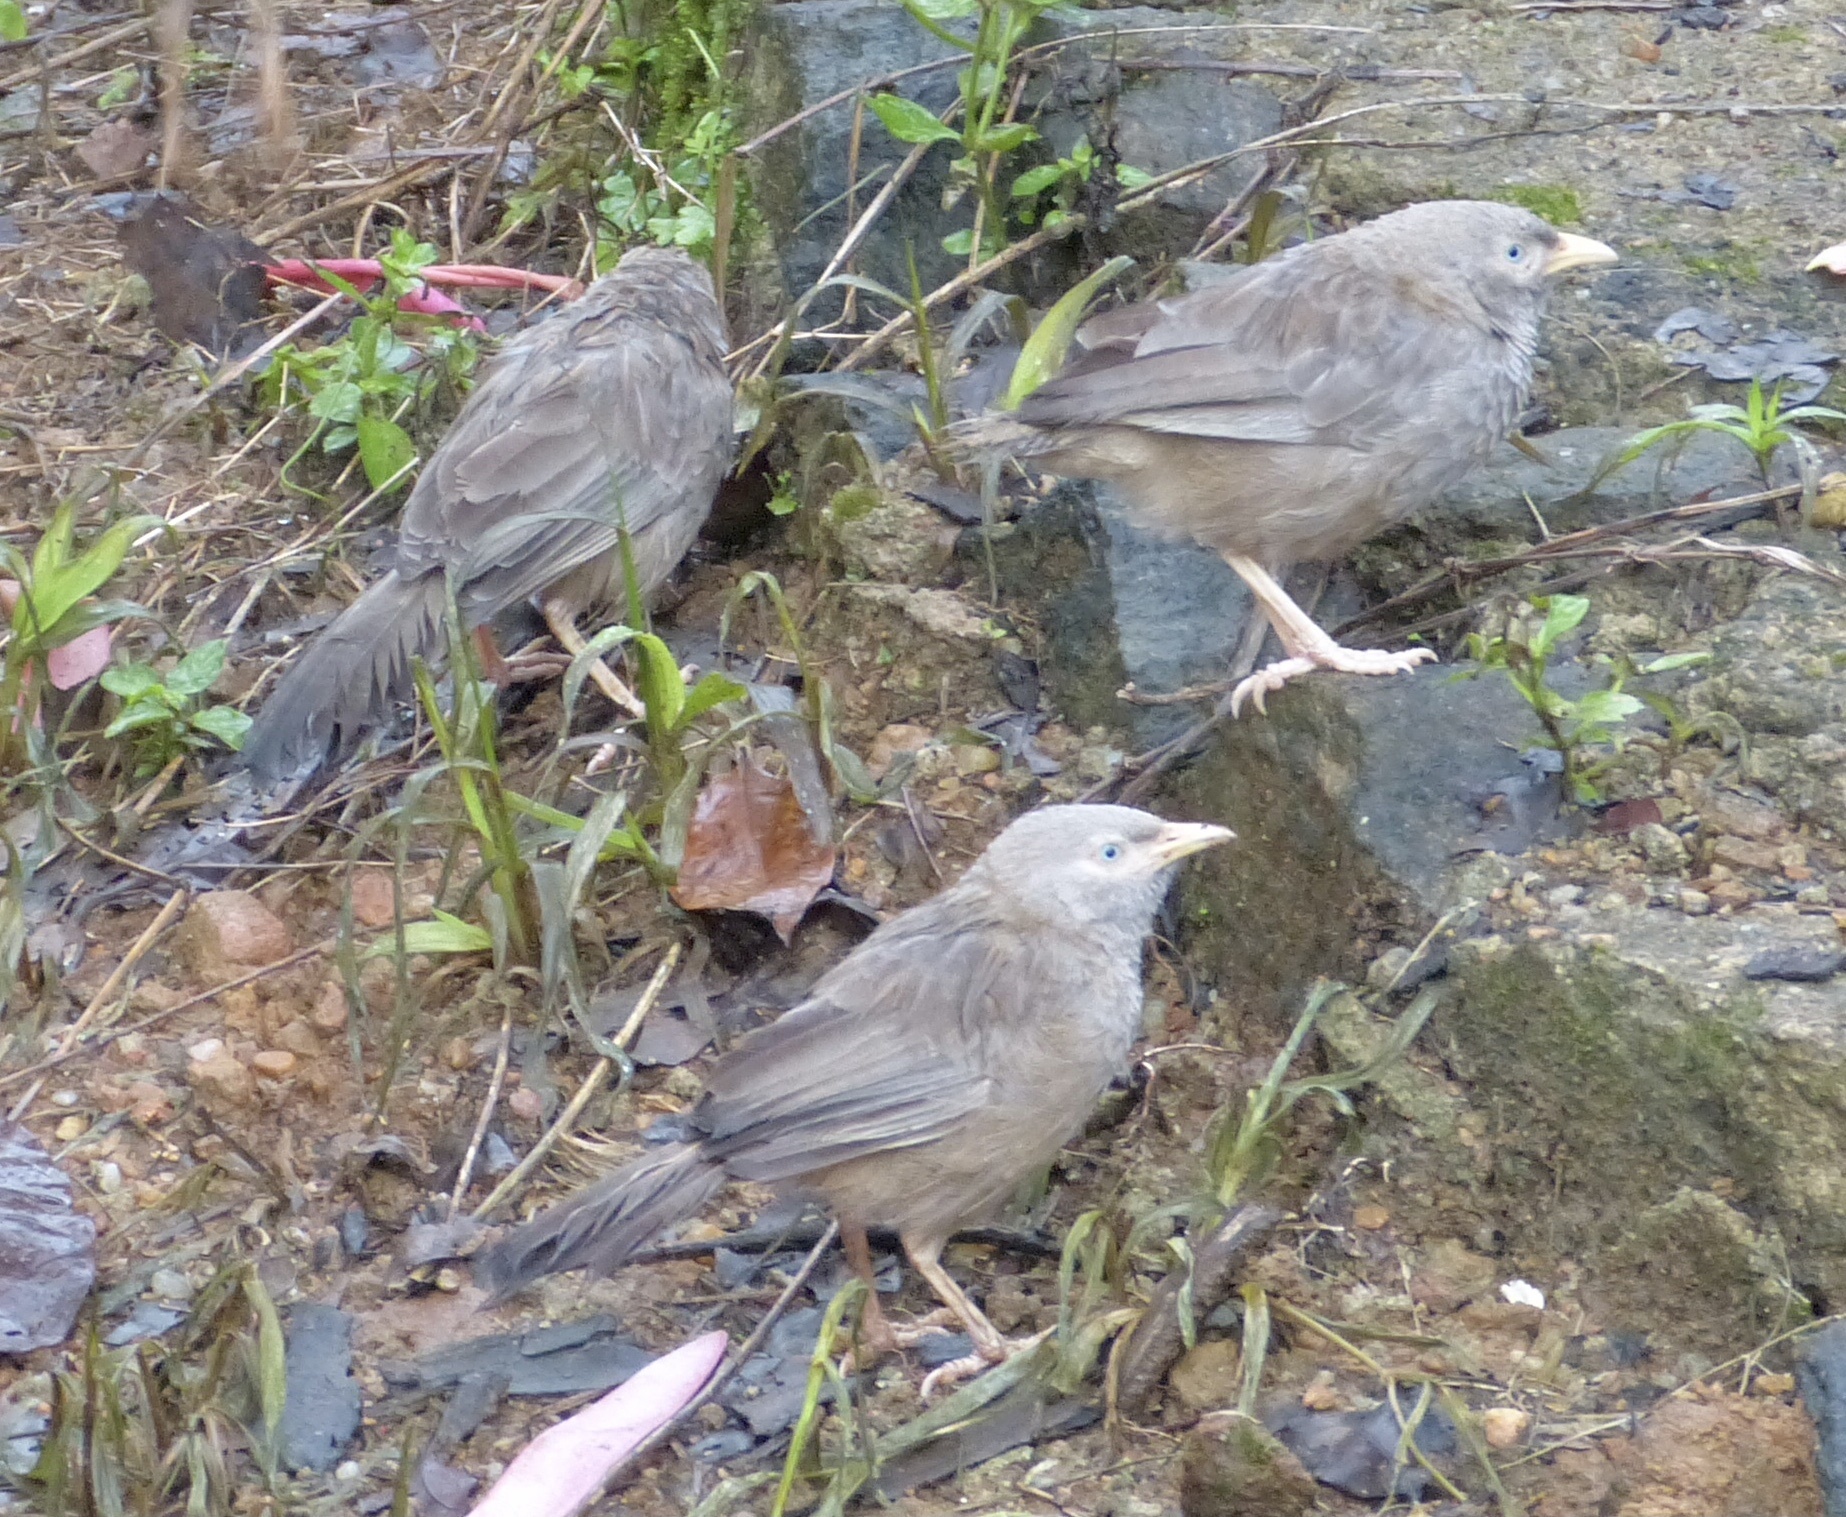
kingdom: Animalia
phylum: Chordata
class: Aves
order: Passeriformes
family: Leiothrichidae
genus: Turdoides
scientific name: Turdoides affinis
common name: Yellow-billed babbler
